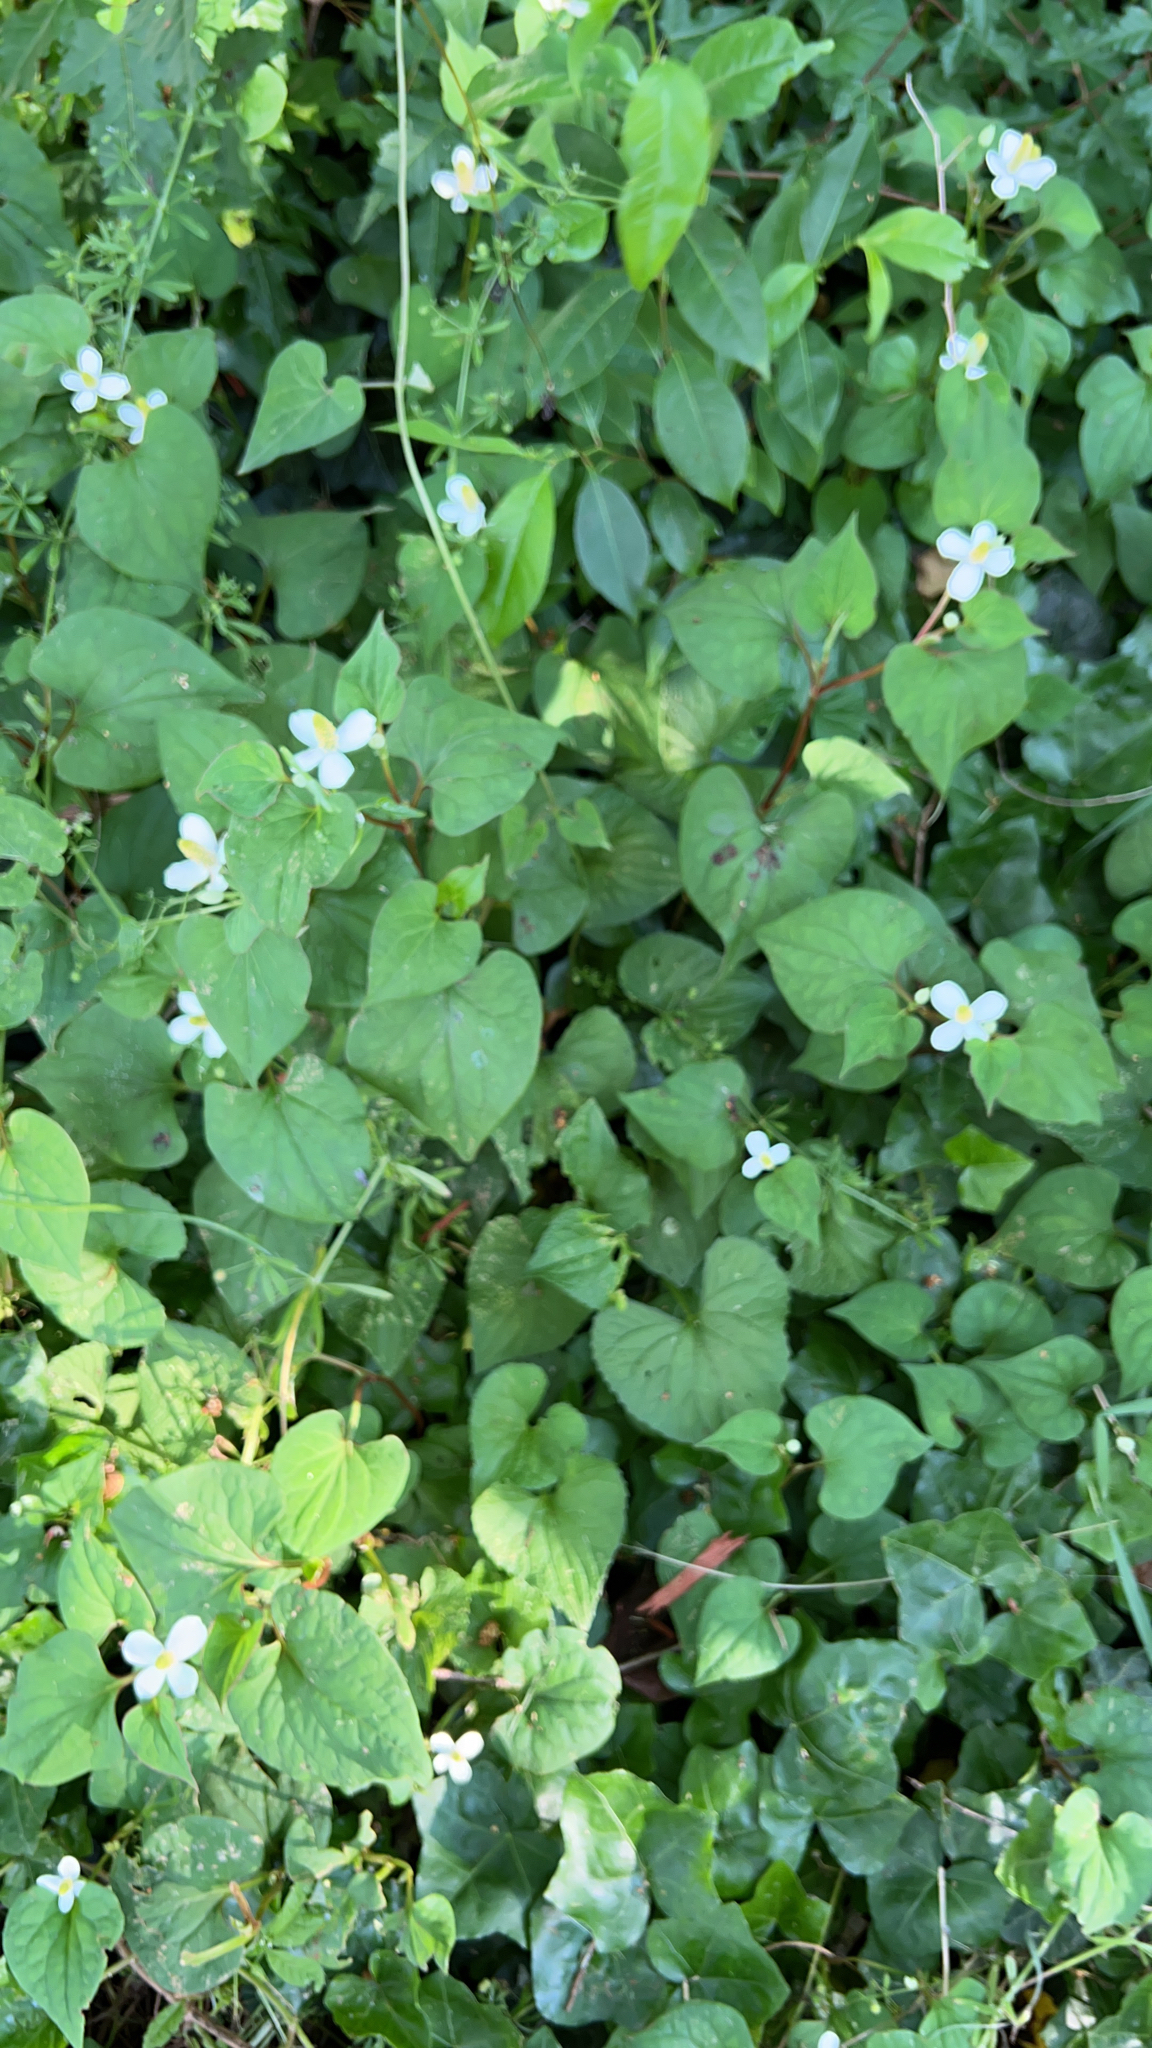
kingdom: Plantae
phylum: Tracheophyta
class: Magnoliopsida
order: Piperales
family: Saururaceae
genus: Houttuynia
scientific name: Houttuynia cordata
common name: Chameleon
